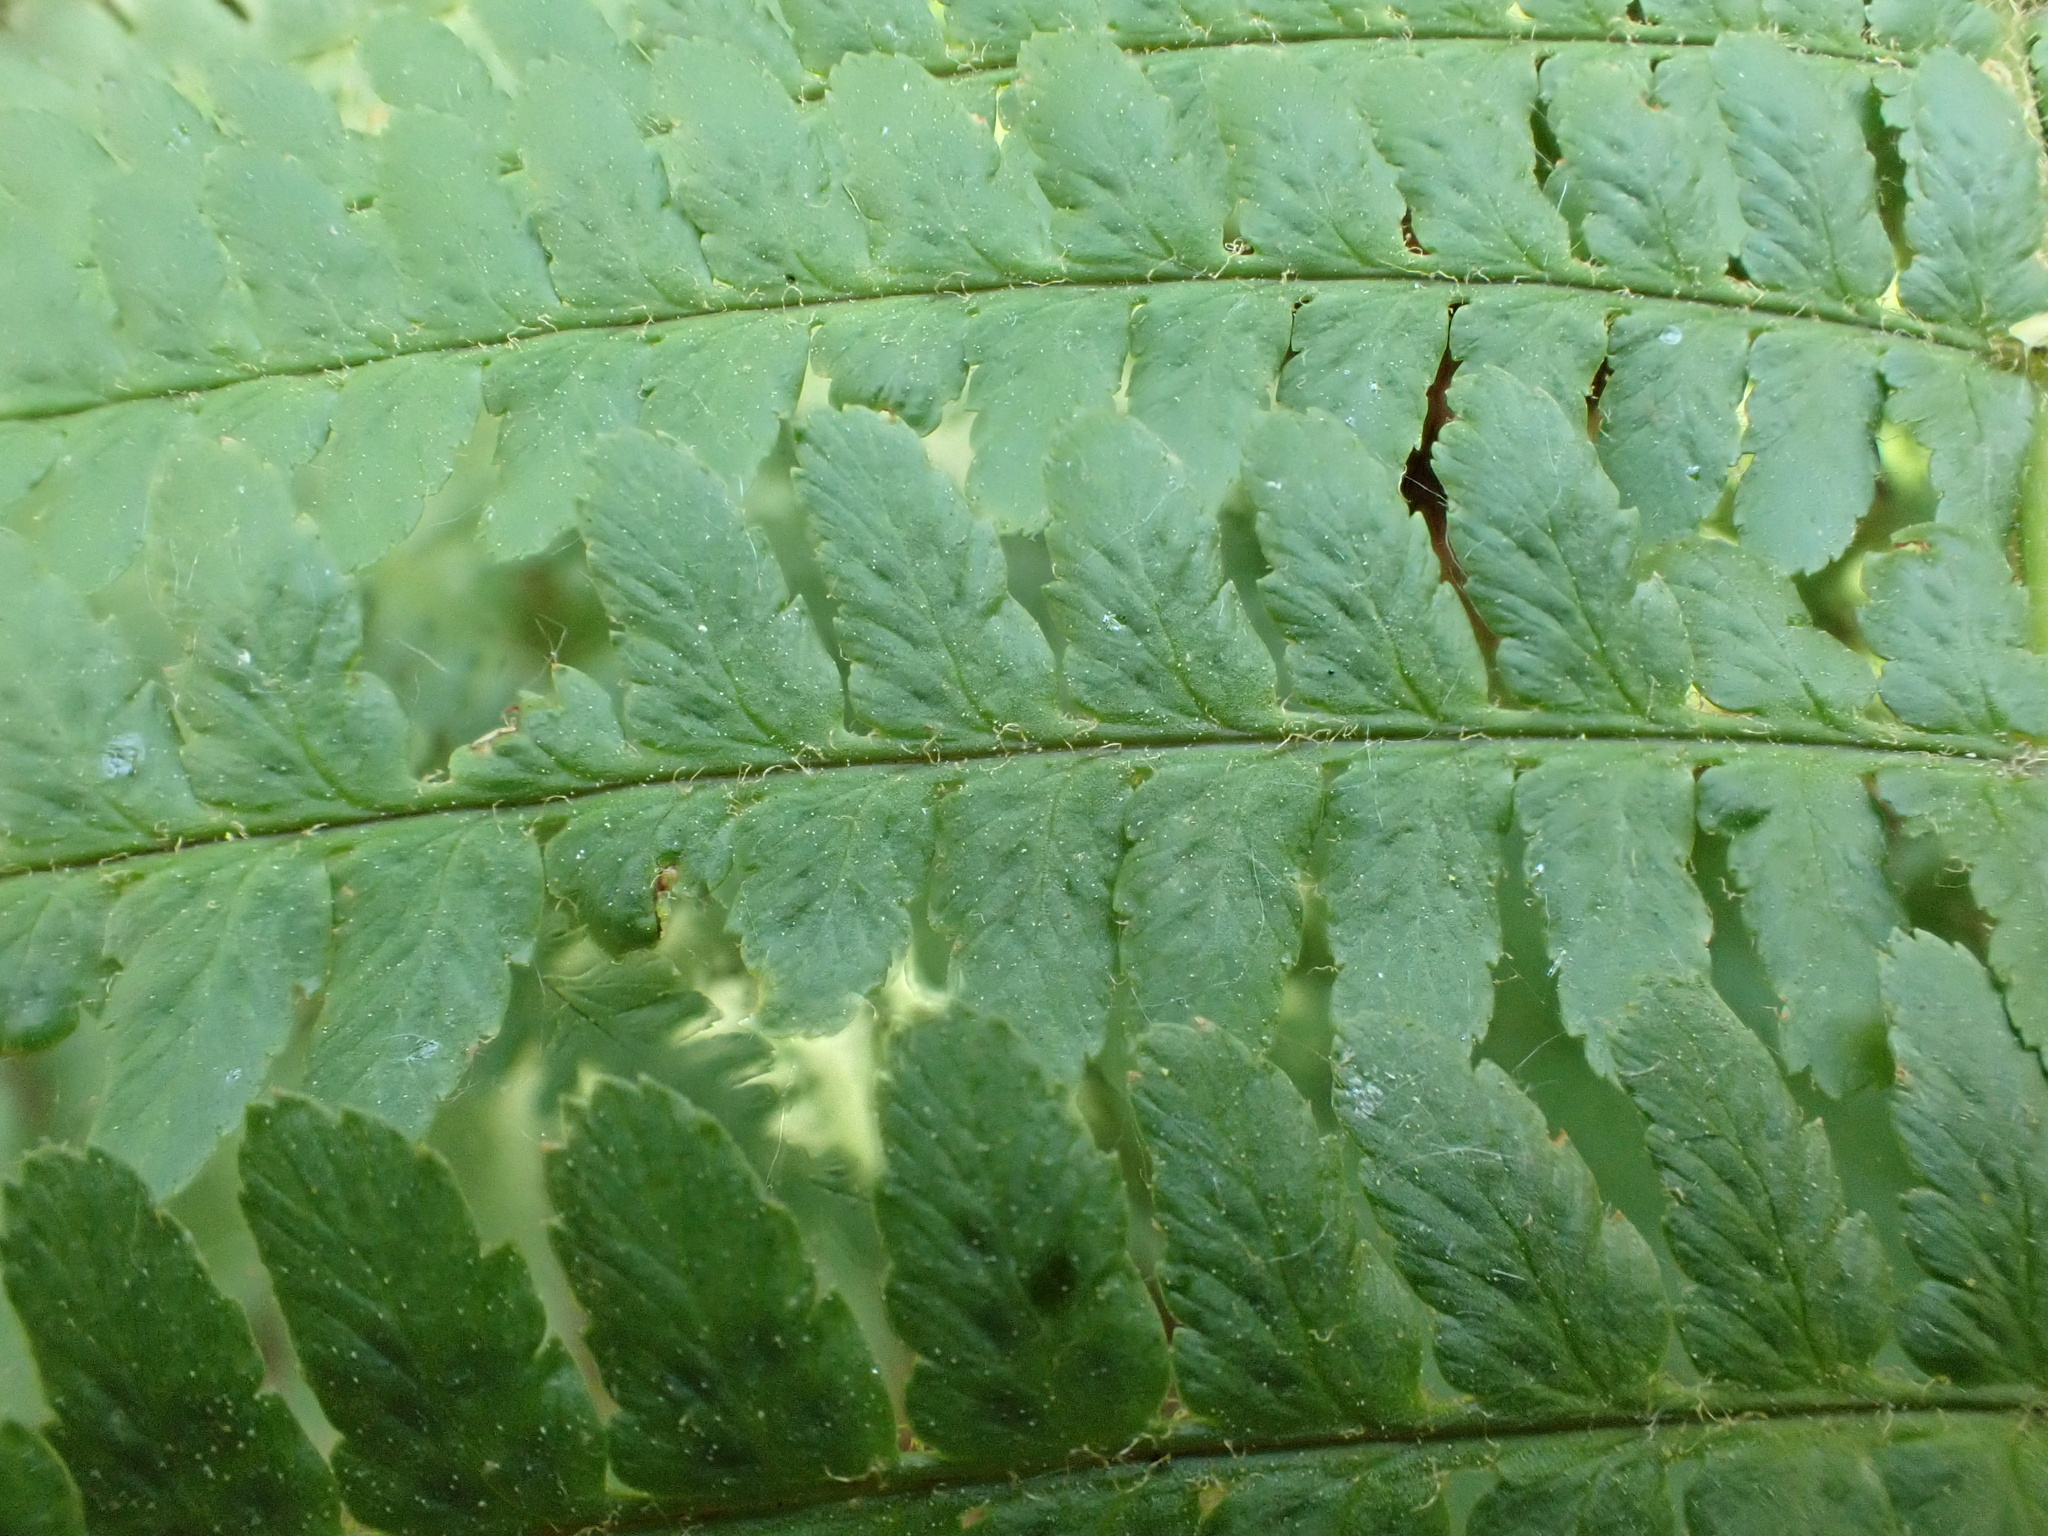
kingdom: Plantae
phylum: Tracheophyta
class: Polypodiopsida
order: Polypodiales
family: Dryopteridaceae
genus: Dryopteris
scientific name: Dryopteris filix-mas
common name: Male fern
